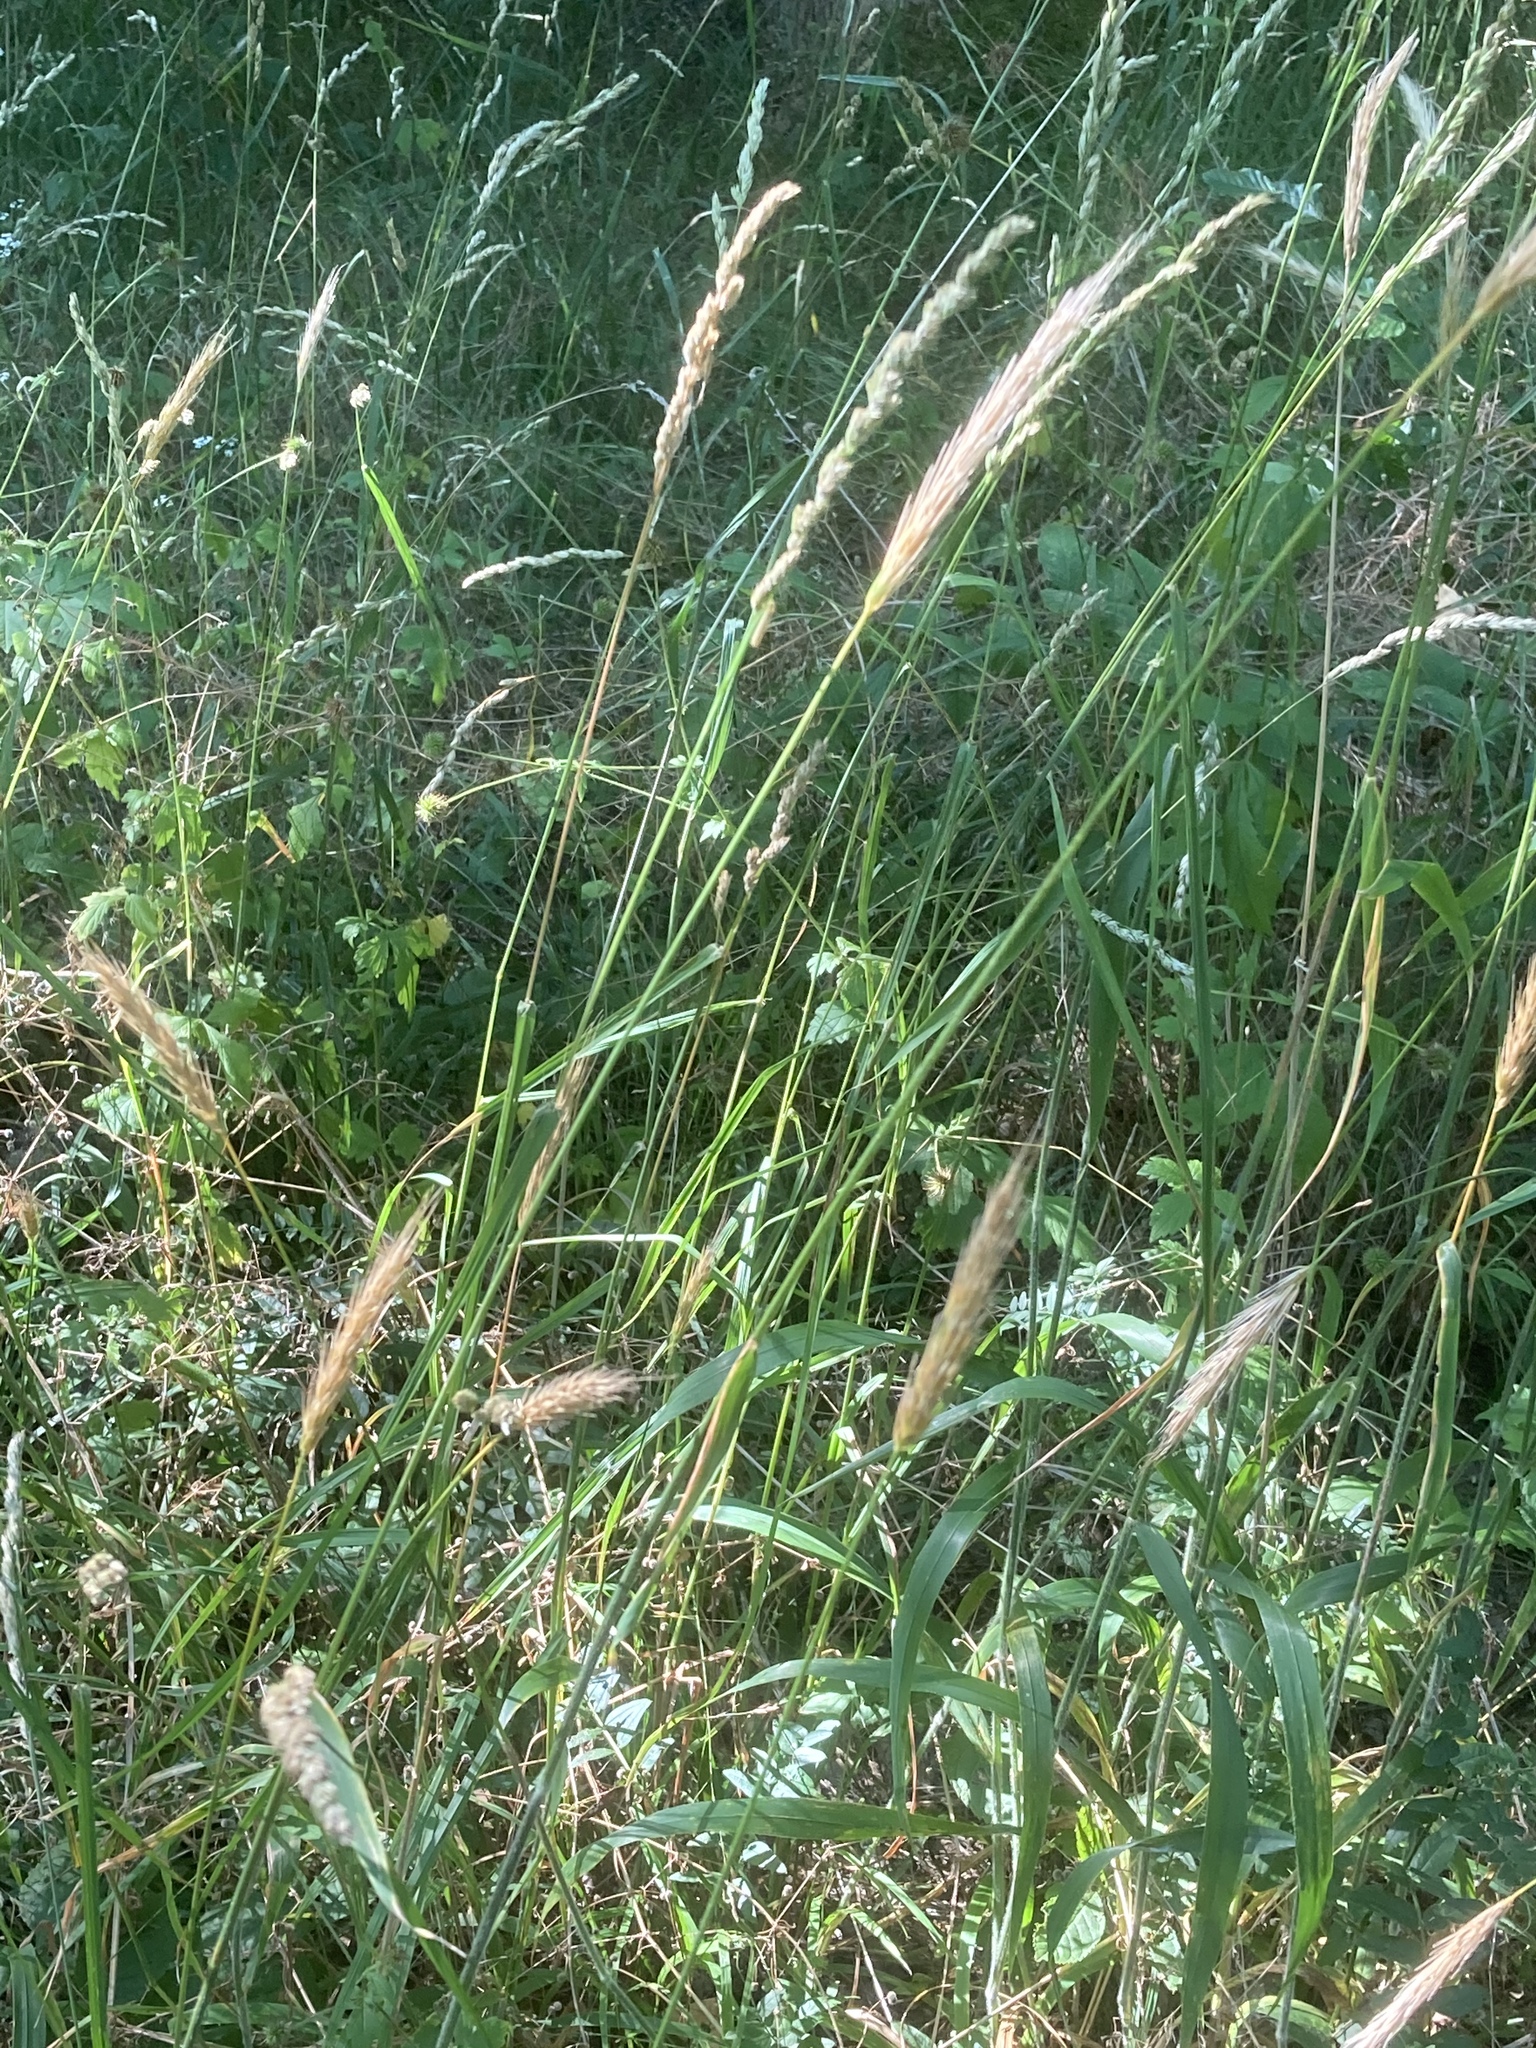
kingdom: Plantae
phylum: Tracheophyta
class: Liliopsida
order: Poales
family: Poaceae
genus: Hordelymus
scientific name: Hordelymus europaeus
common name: Wood-barley
